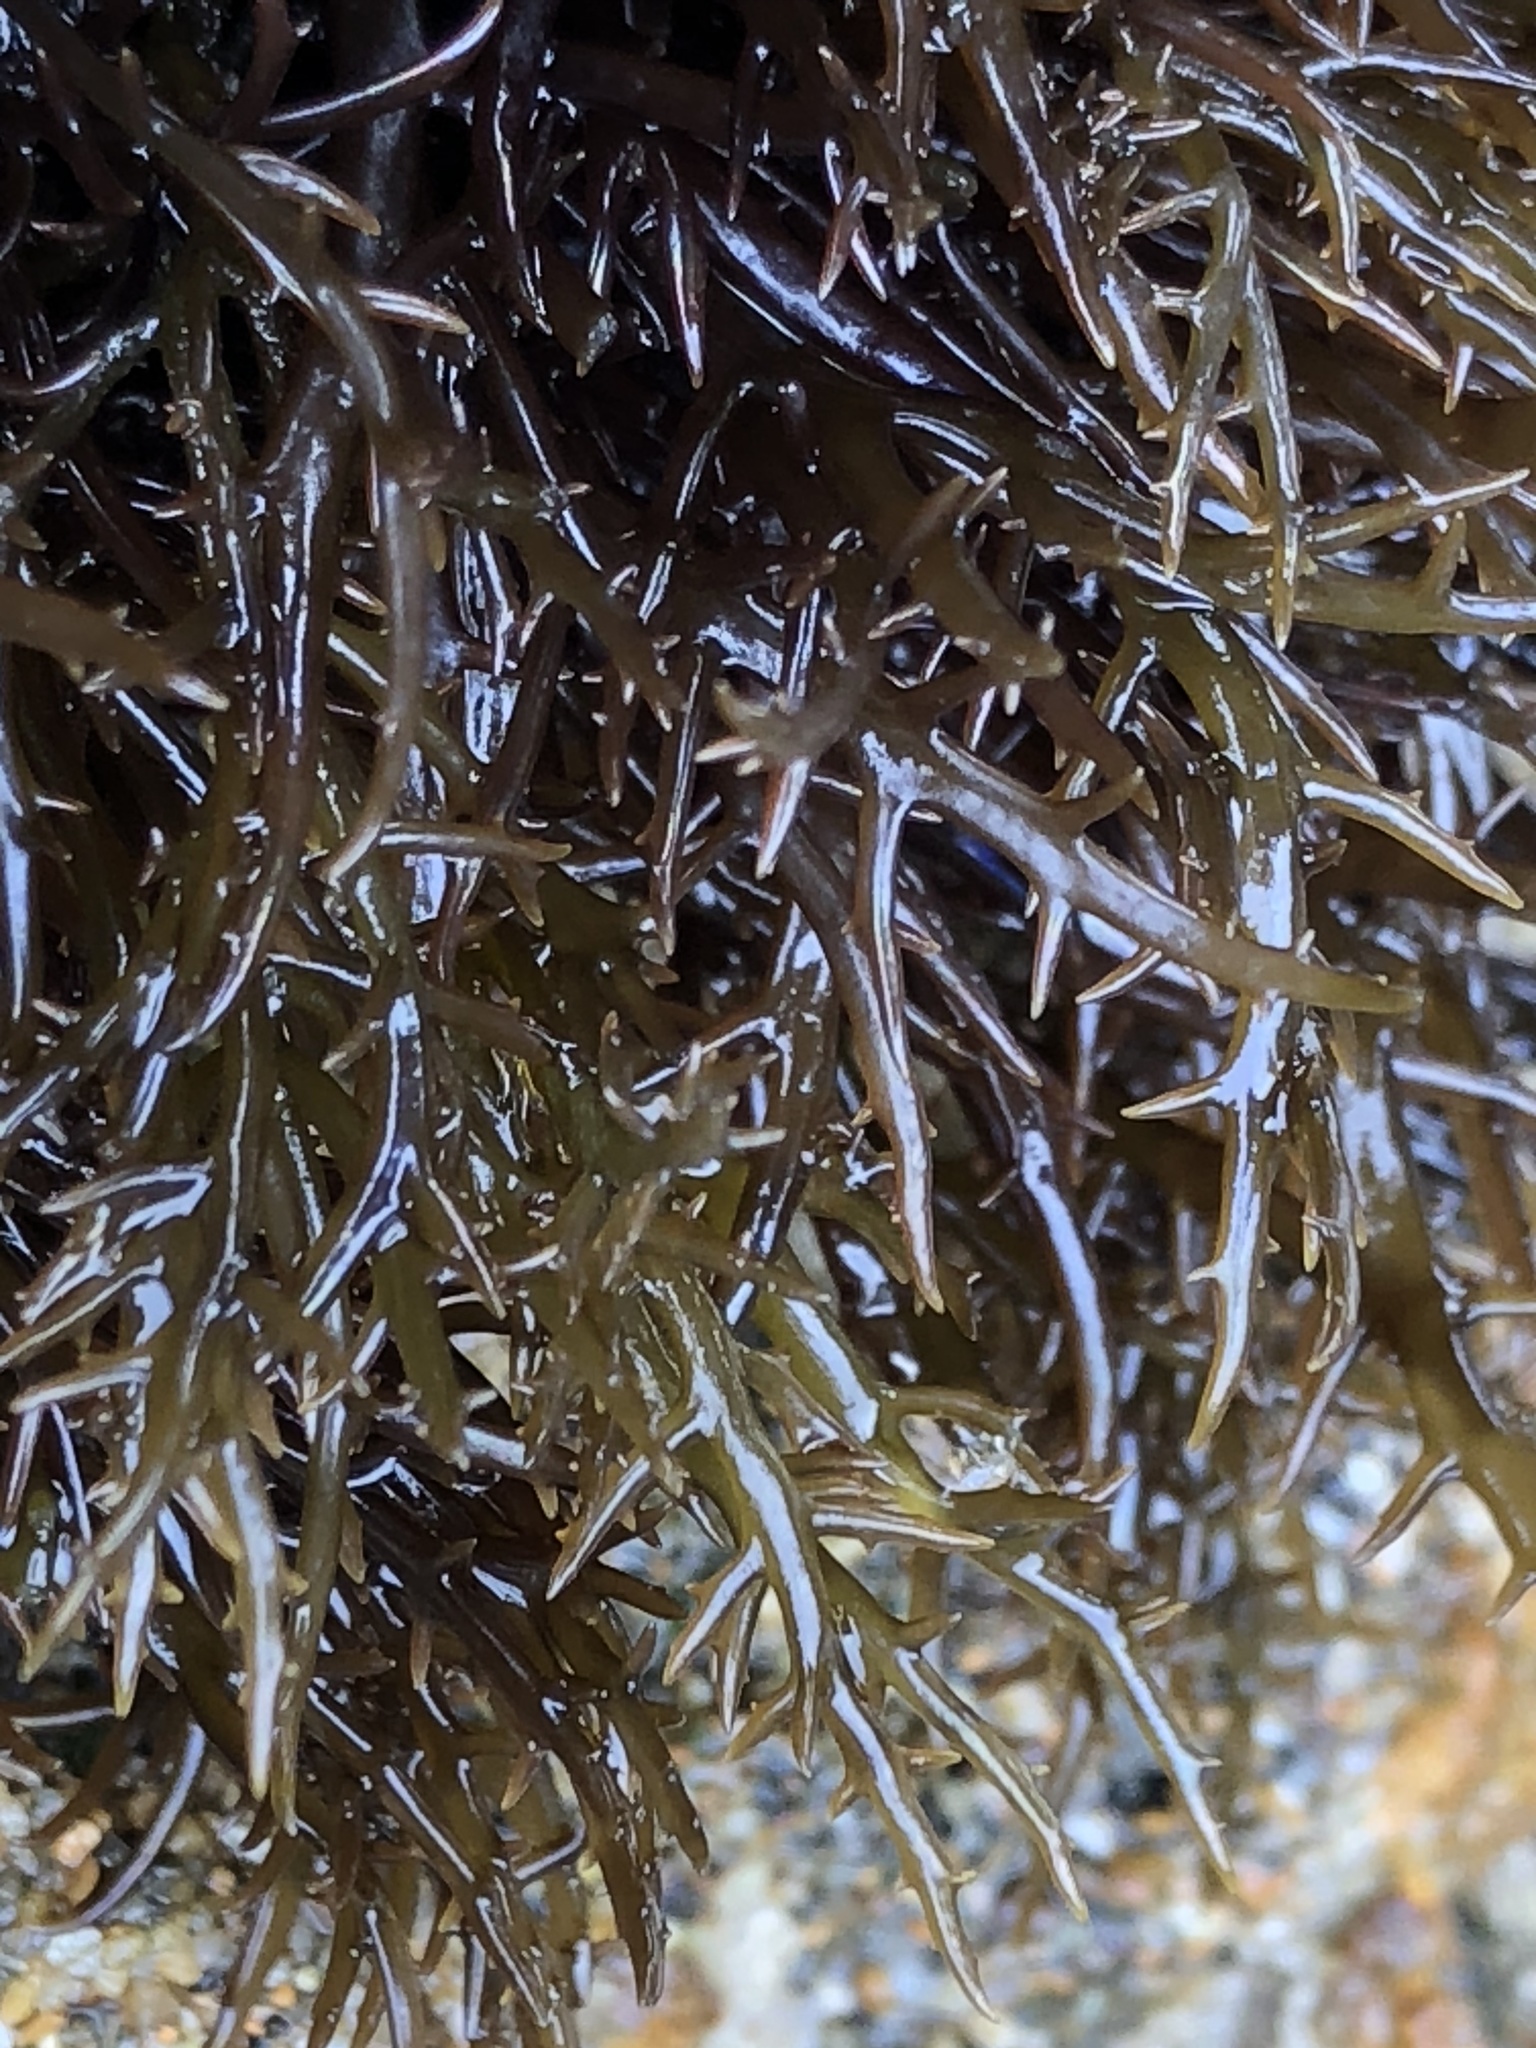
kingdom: Plantae
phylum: Rhodophyta
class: Florideophyceae
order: Gigartinales
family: Gigartinaceae
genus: Chondracanthus
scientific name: Chondracanthus canaliculatus
